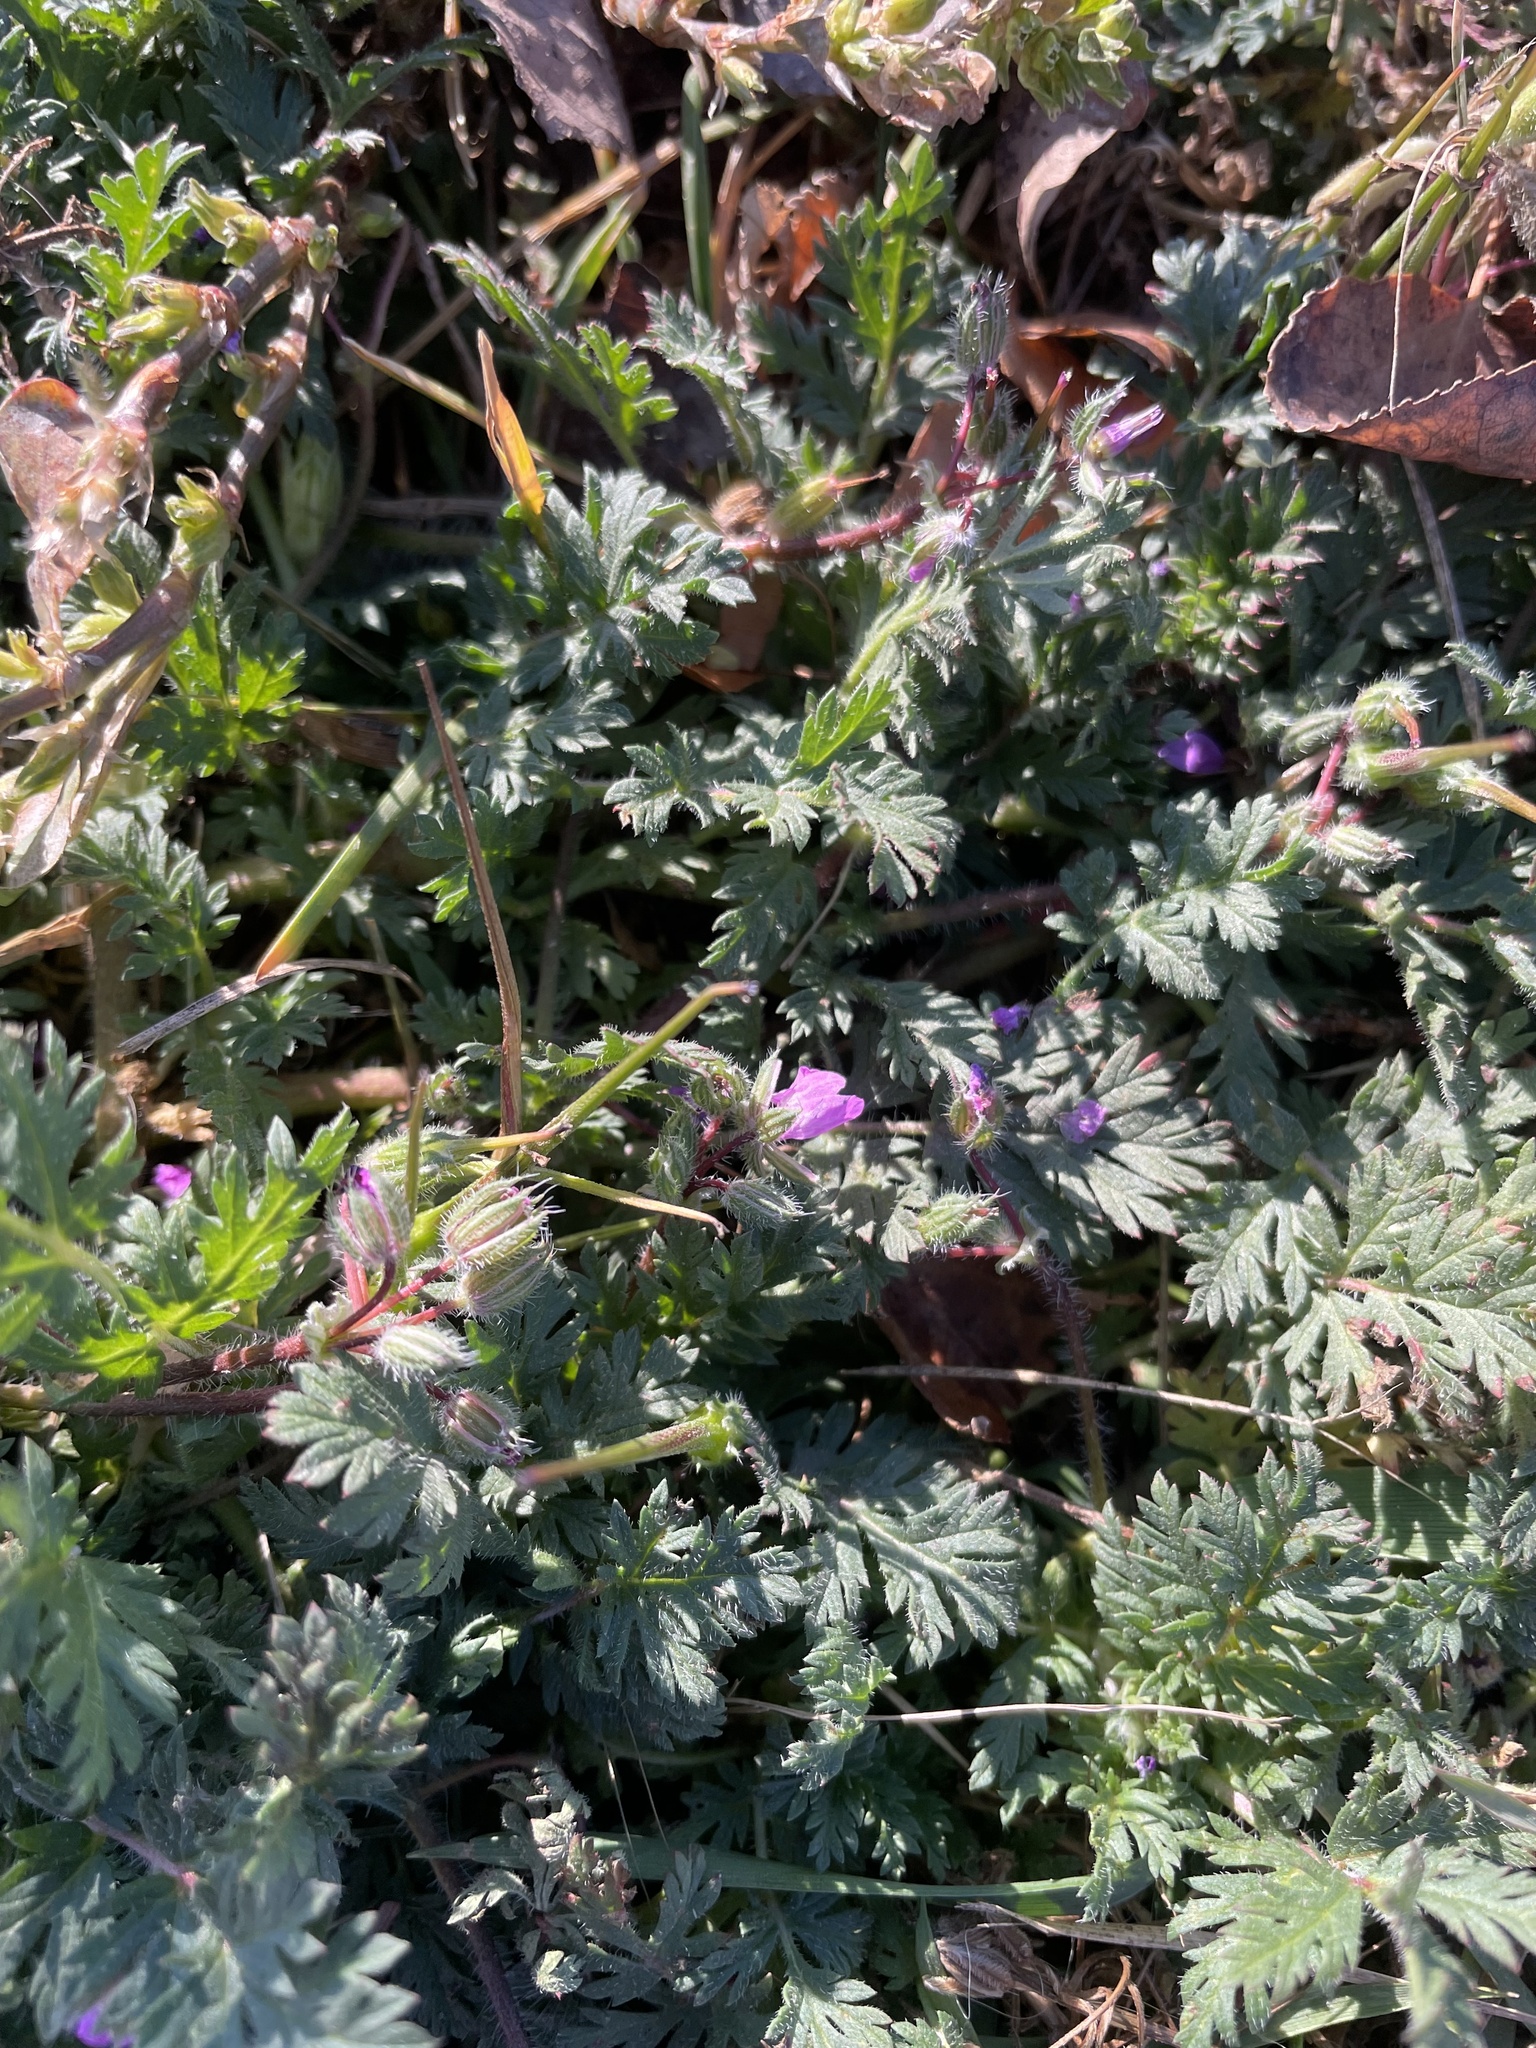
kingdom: Plantae
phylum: Tracheophyta
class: Magnoliopsida
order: Geraniales
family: Geraniaceae
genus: Erodium
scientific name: Erodium cicutarium
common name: Common stork's-bill
